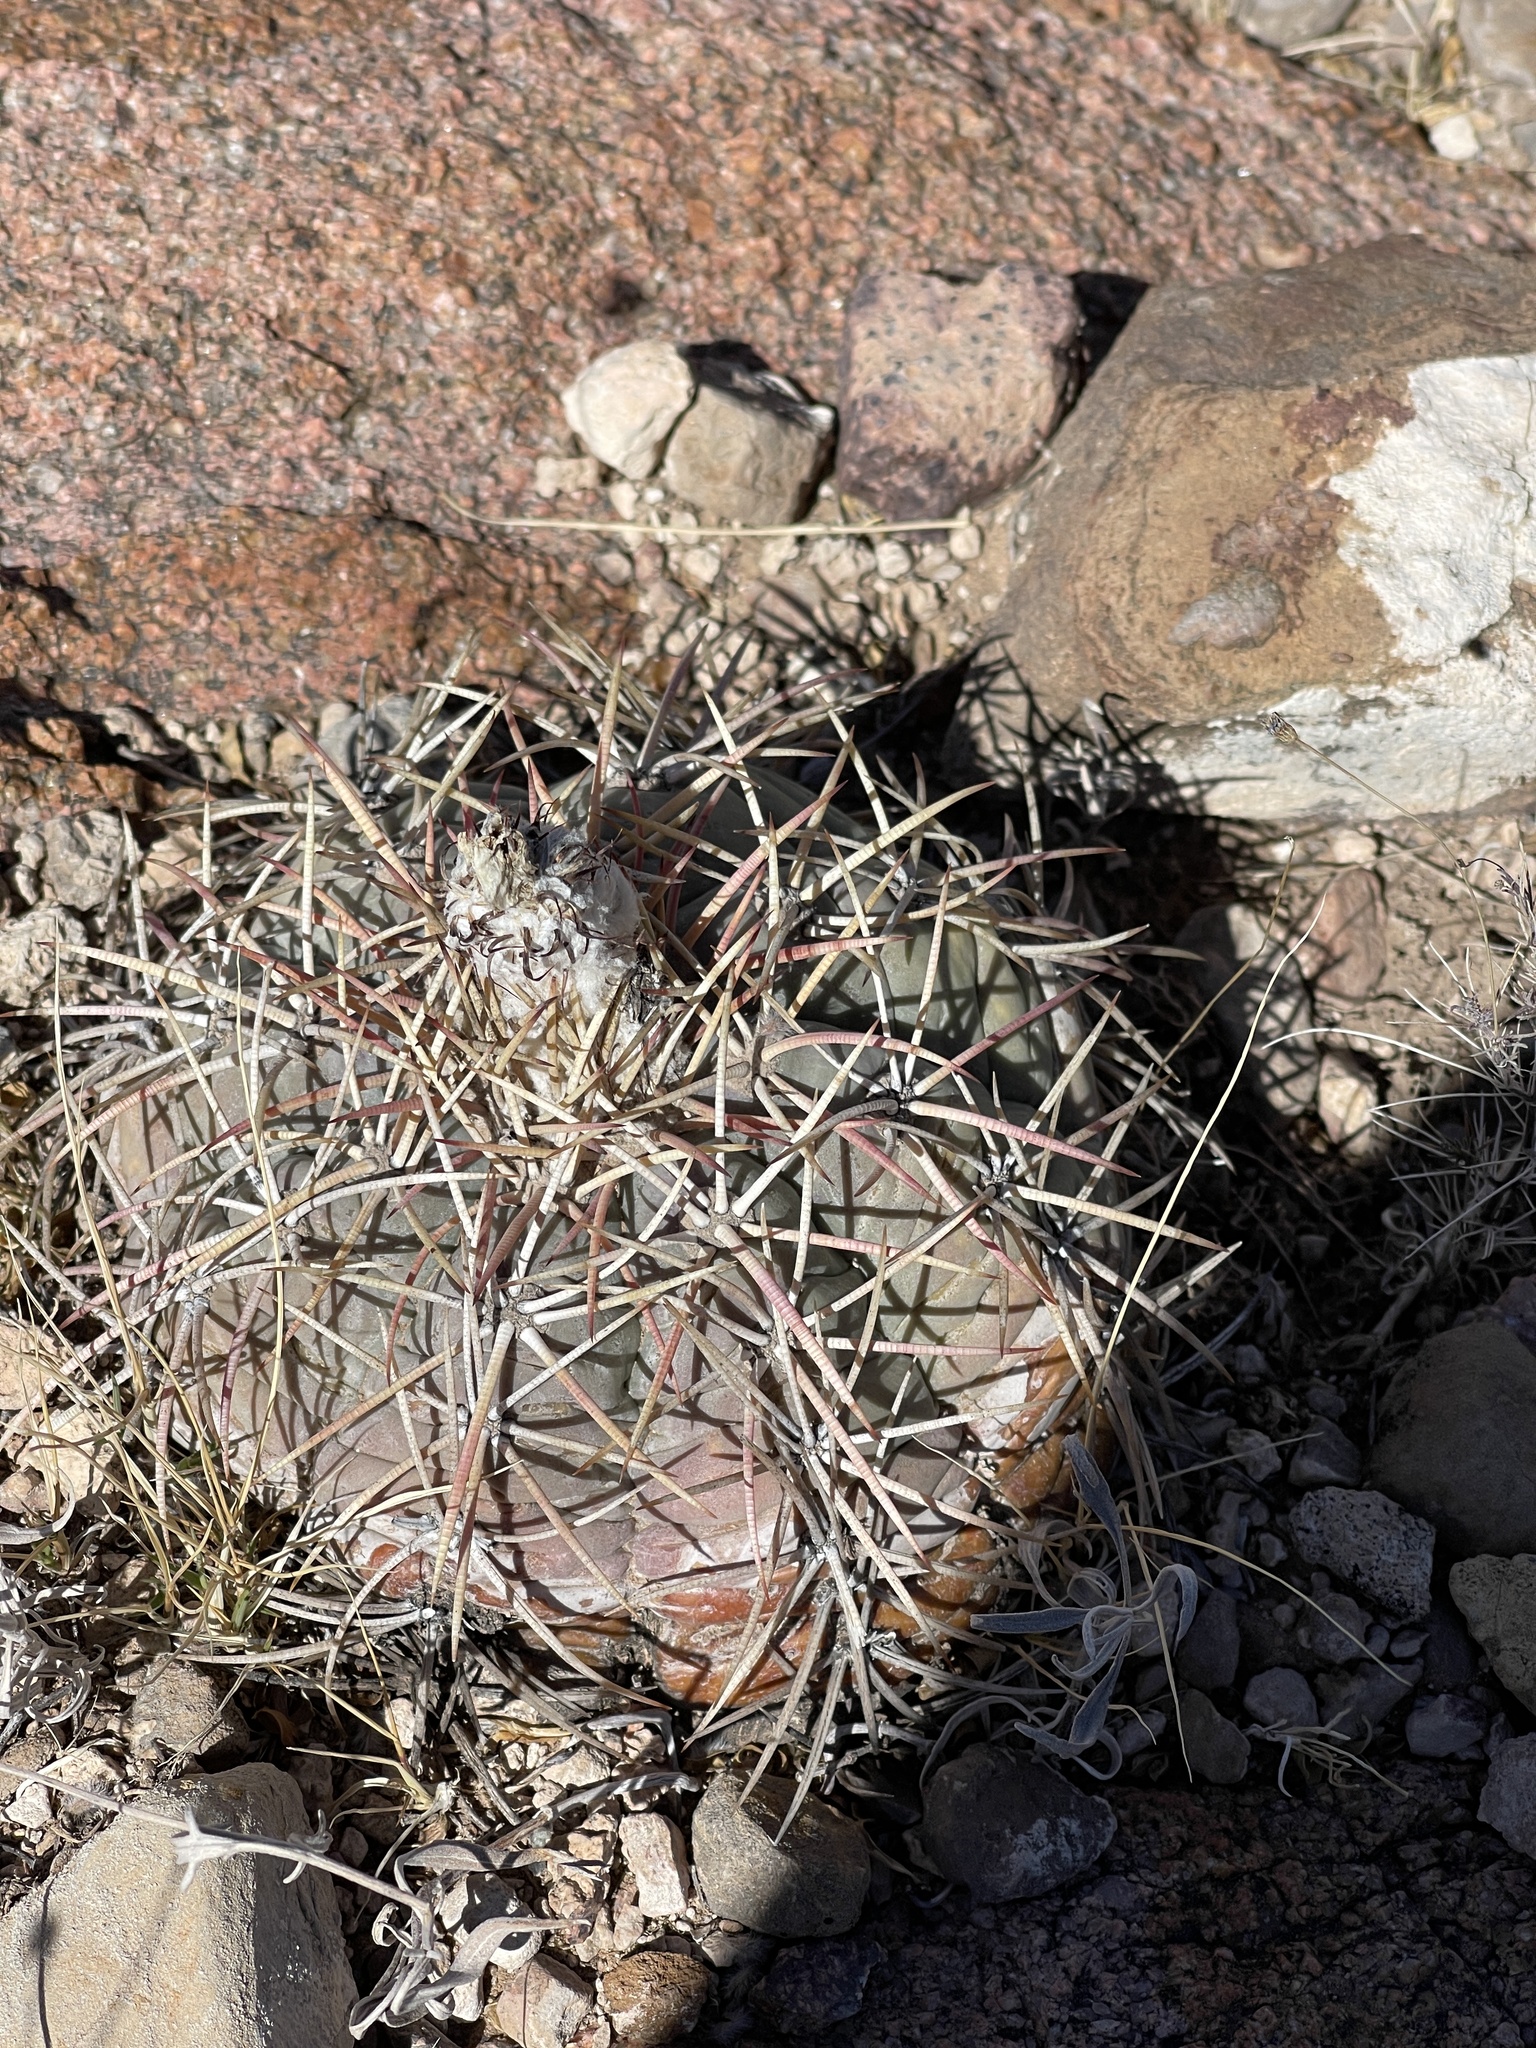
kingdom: Plantae
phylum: Tracheophyta
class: Magnoliopsida
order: Caryophyllales
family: Cactaceae
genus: Echinocactus
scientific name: Echinocactus horizonthalonius
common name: Devilshead
